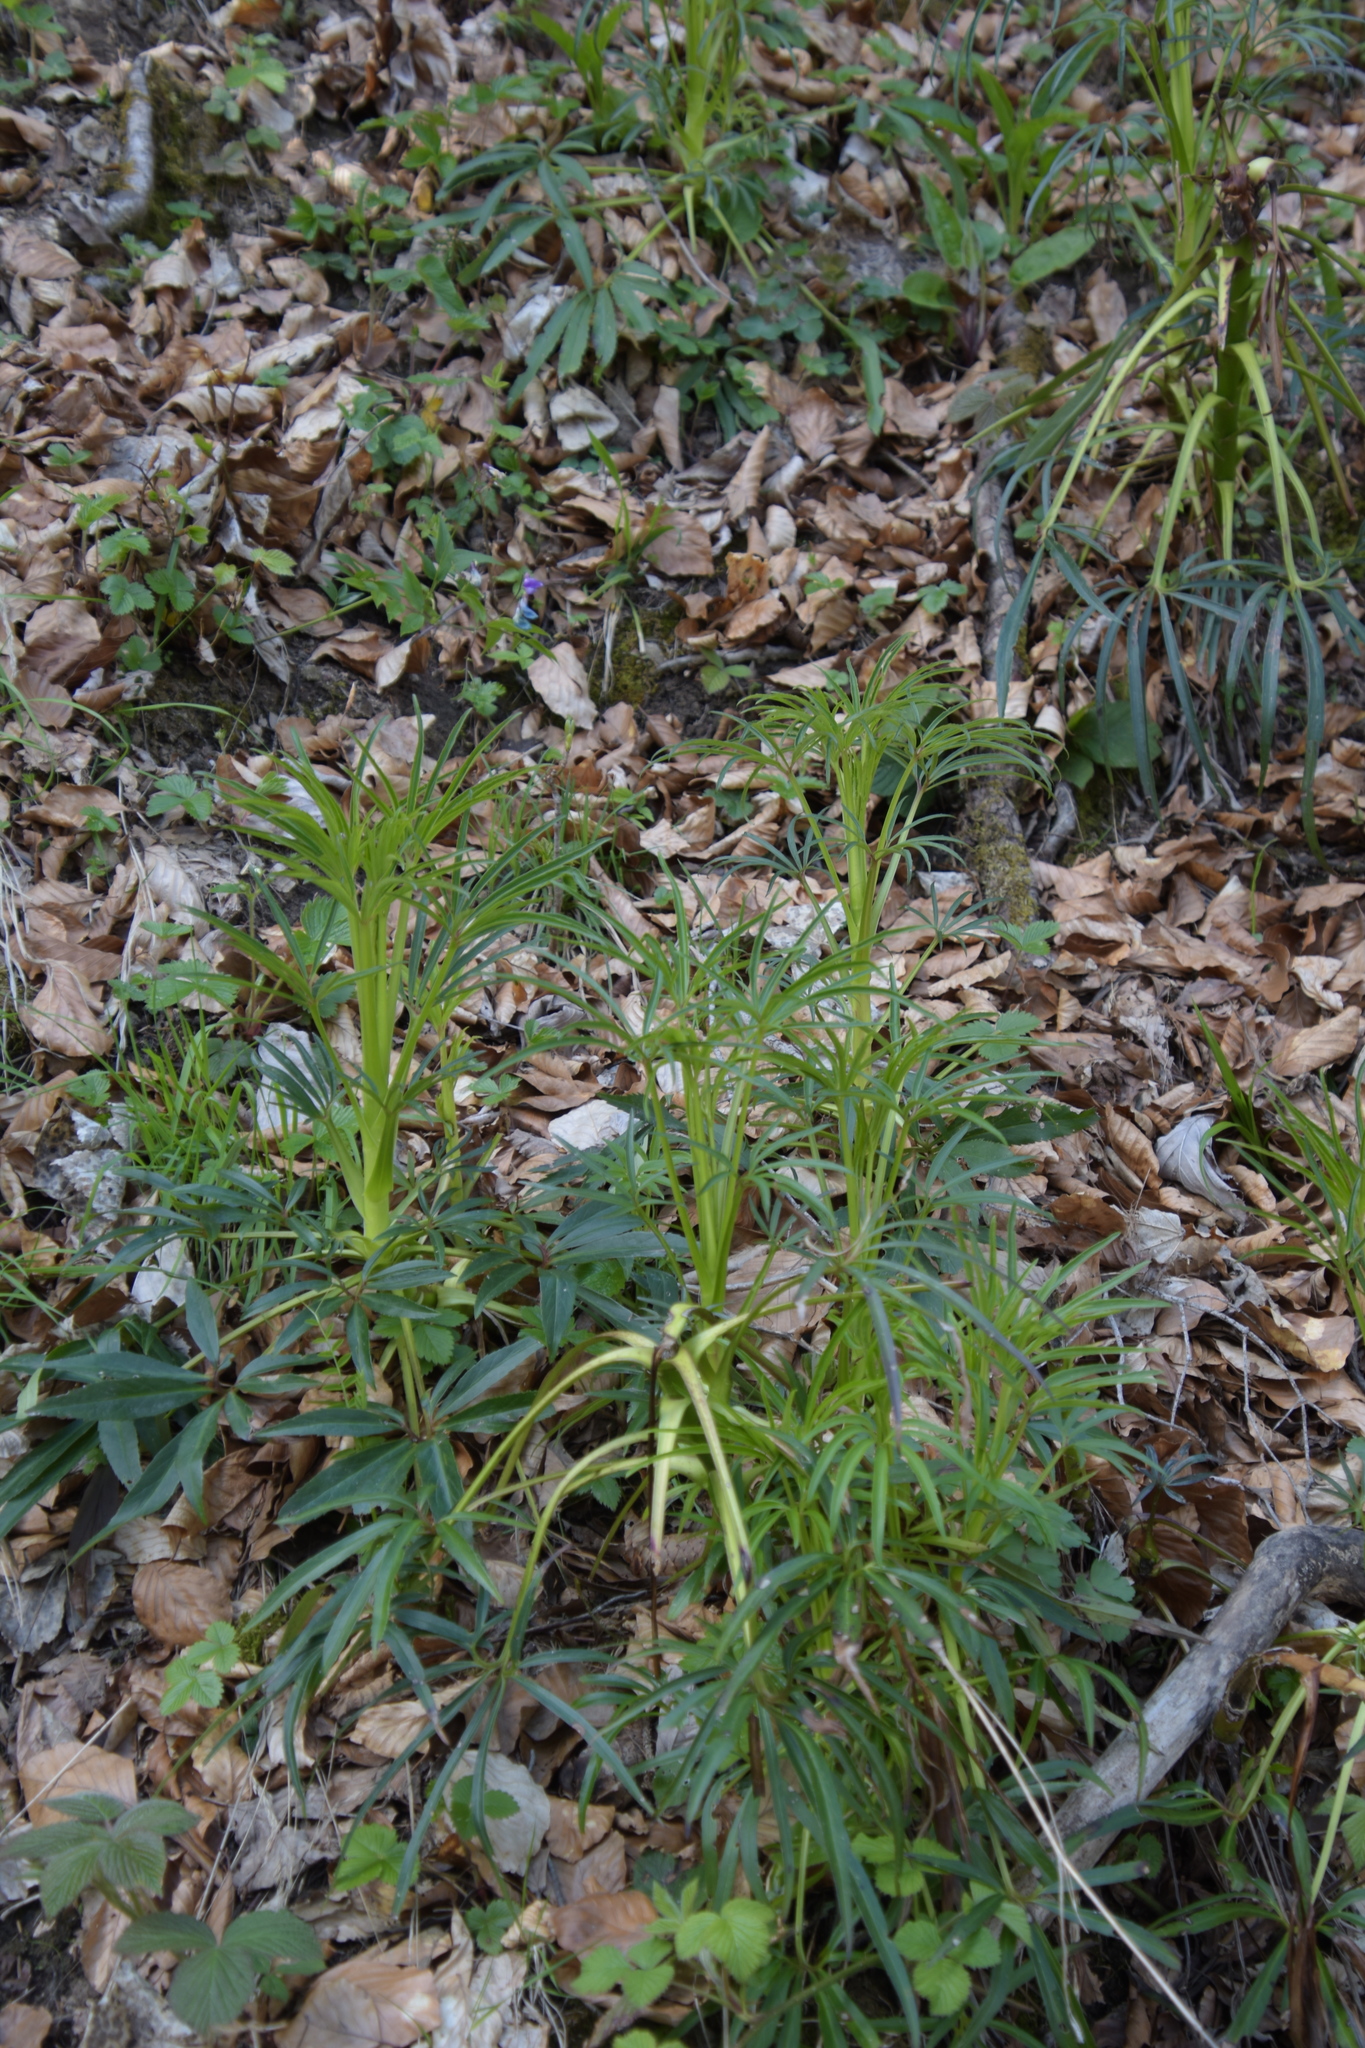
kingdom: Plantae
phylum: Tracheophyta
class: Magnoliopsida
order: Ranunculales
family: Ranunculaceae
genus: Helleborus
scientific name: Helleborus foetidus
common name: Stinking hellebore
